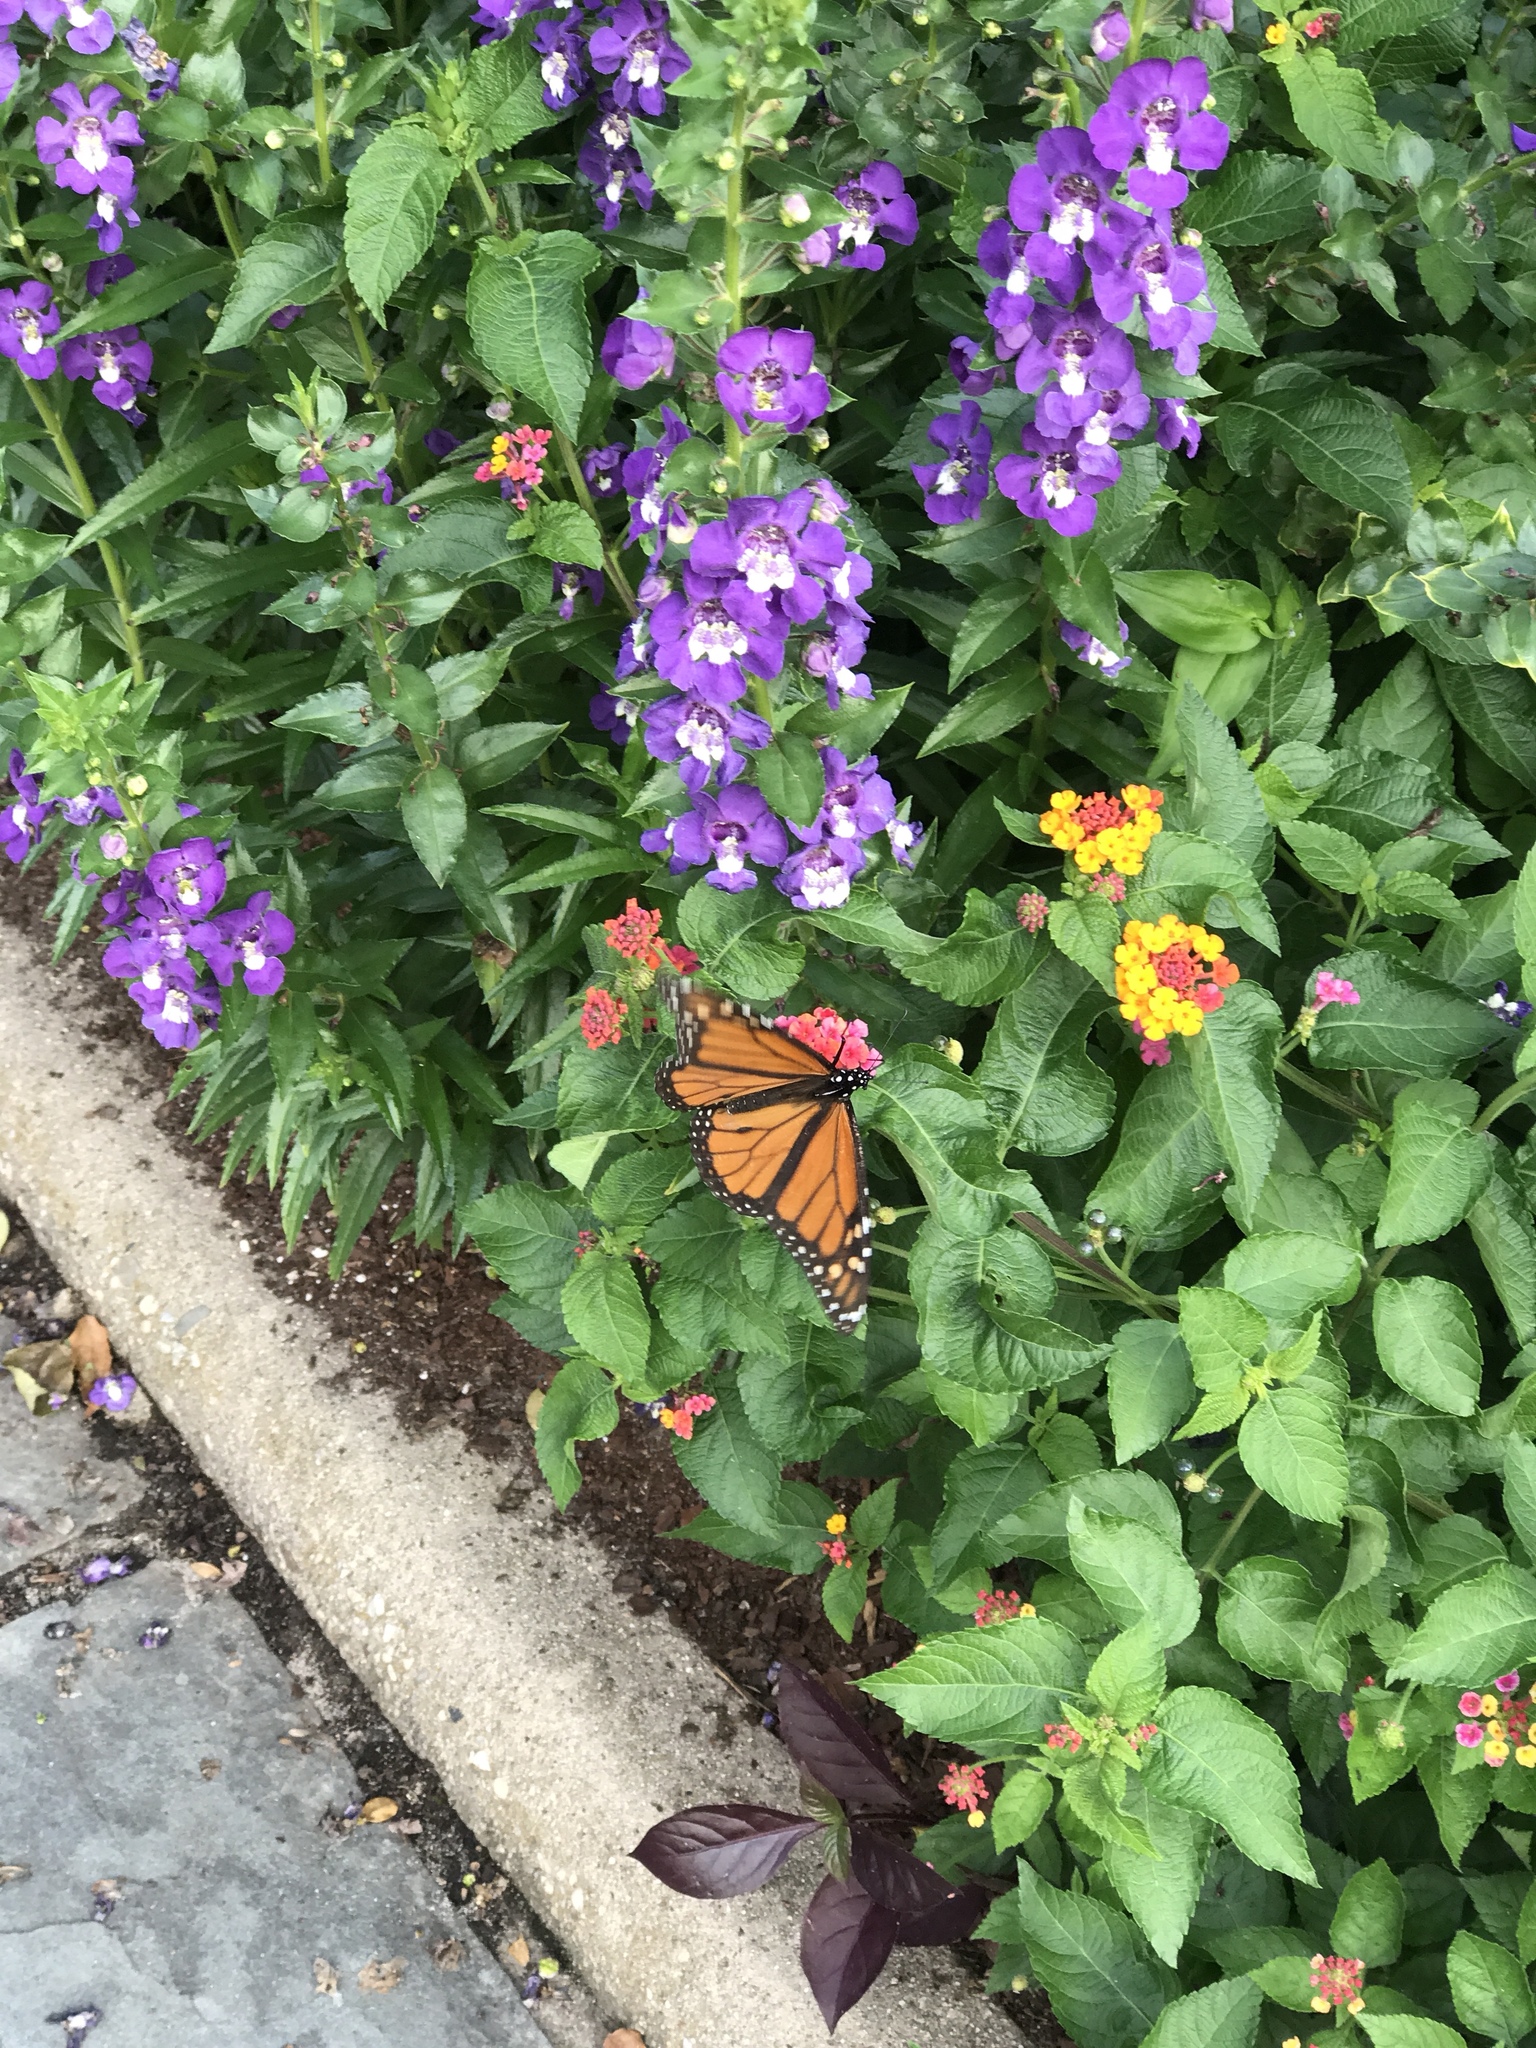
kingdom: Animalia
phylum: Arthropoda
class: Insecta
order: Lepidoptera
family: Nymphalidae
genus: Danaus
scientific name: Danaus plexippus
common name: Monarch
